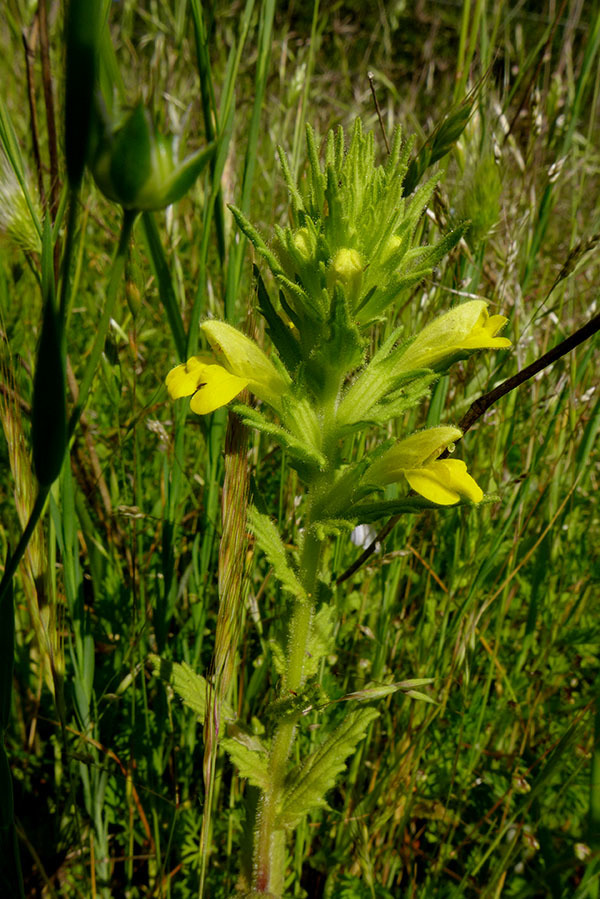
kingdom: Plantae
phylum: Tracheophyta
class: Magnoliopsida
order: Lamiales
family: Orobanchaceae
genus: Bellardia
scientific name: Bellardia viscosa
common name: Sticky parentucellia
